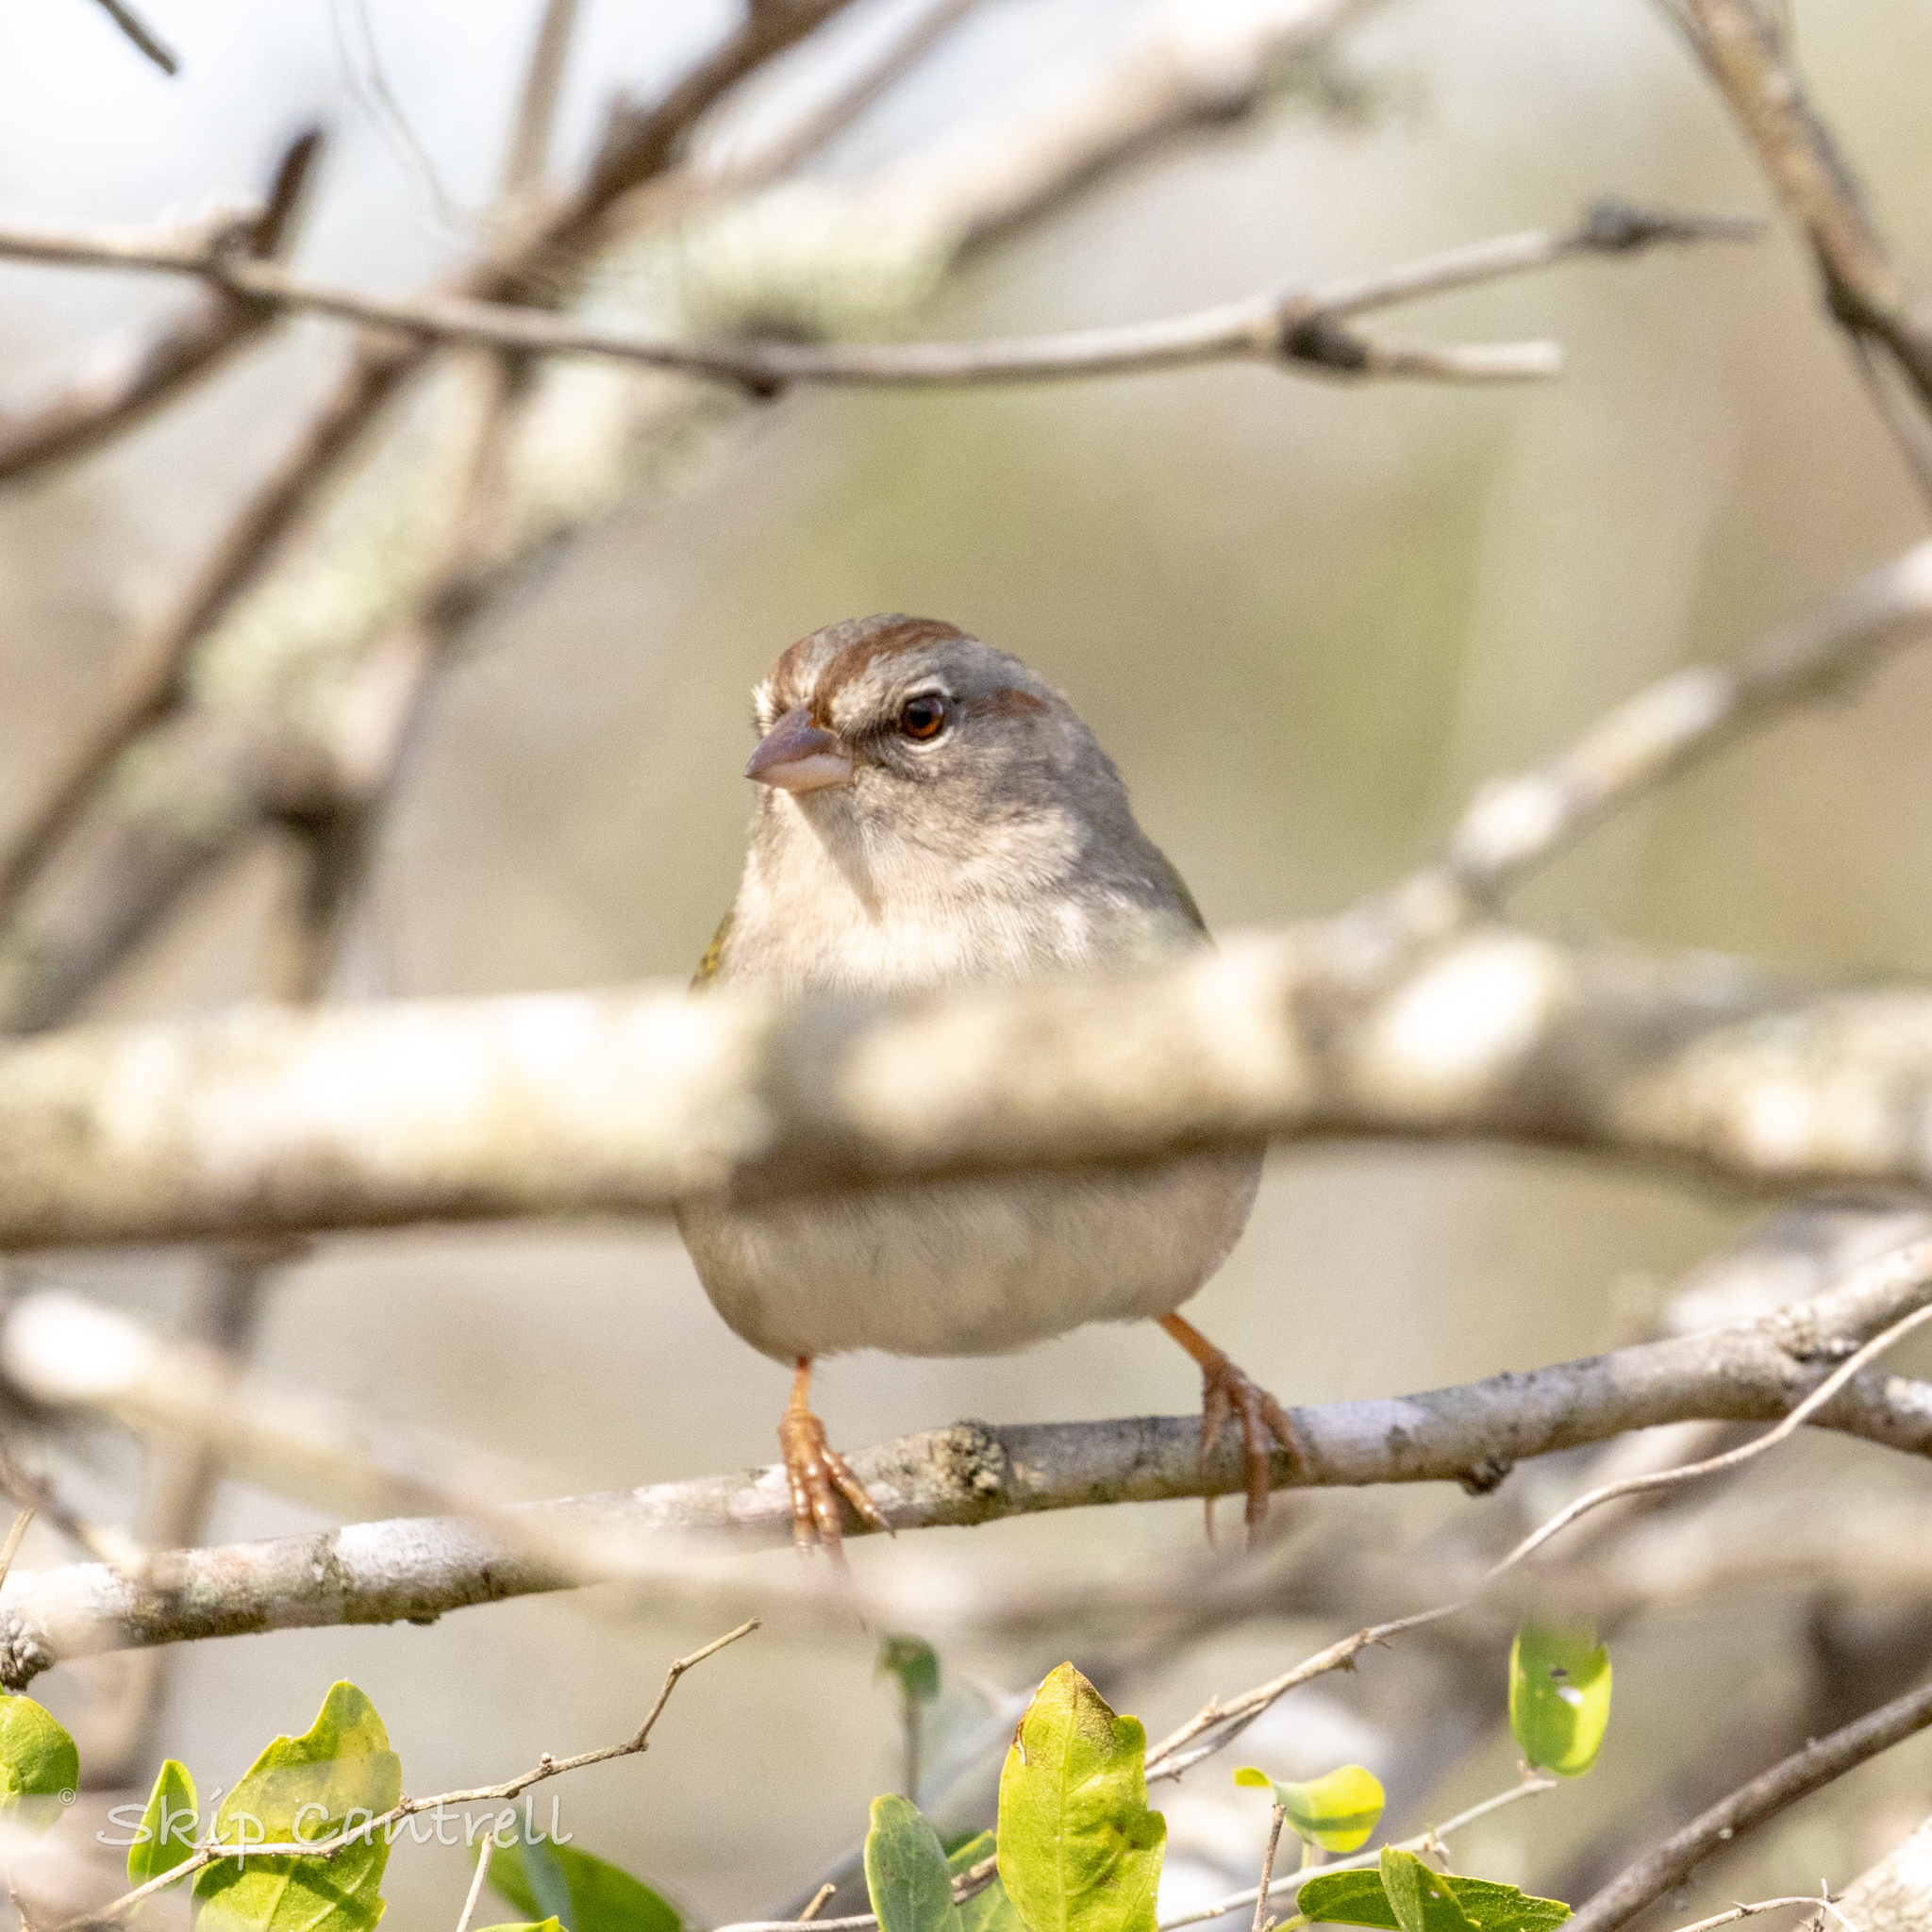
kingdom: Animalia
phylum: Chordata
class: Aves
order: Passeriformes
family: Passerellidae
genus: Arremonops
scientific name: Arremonops rufivirgatus
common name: Olive sparrow
